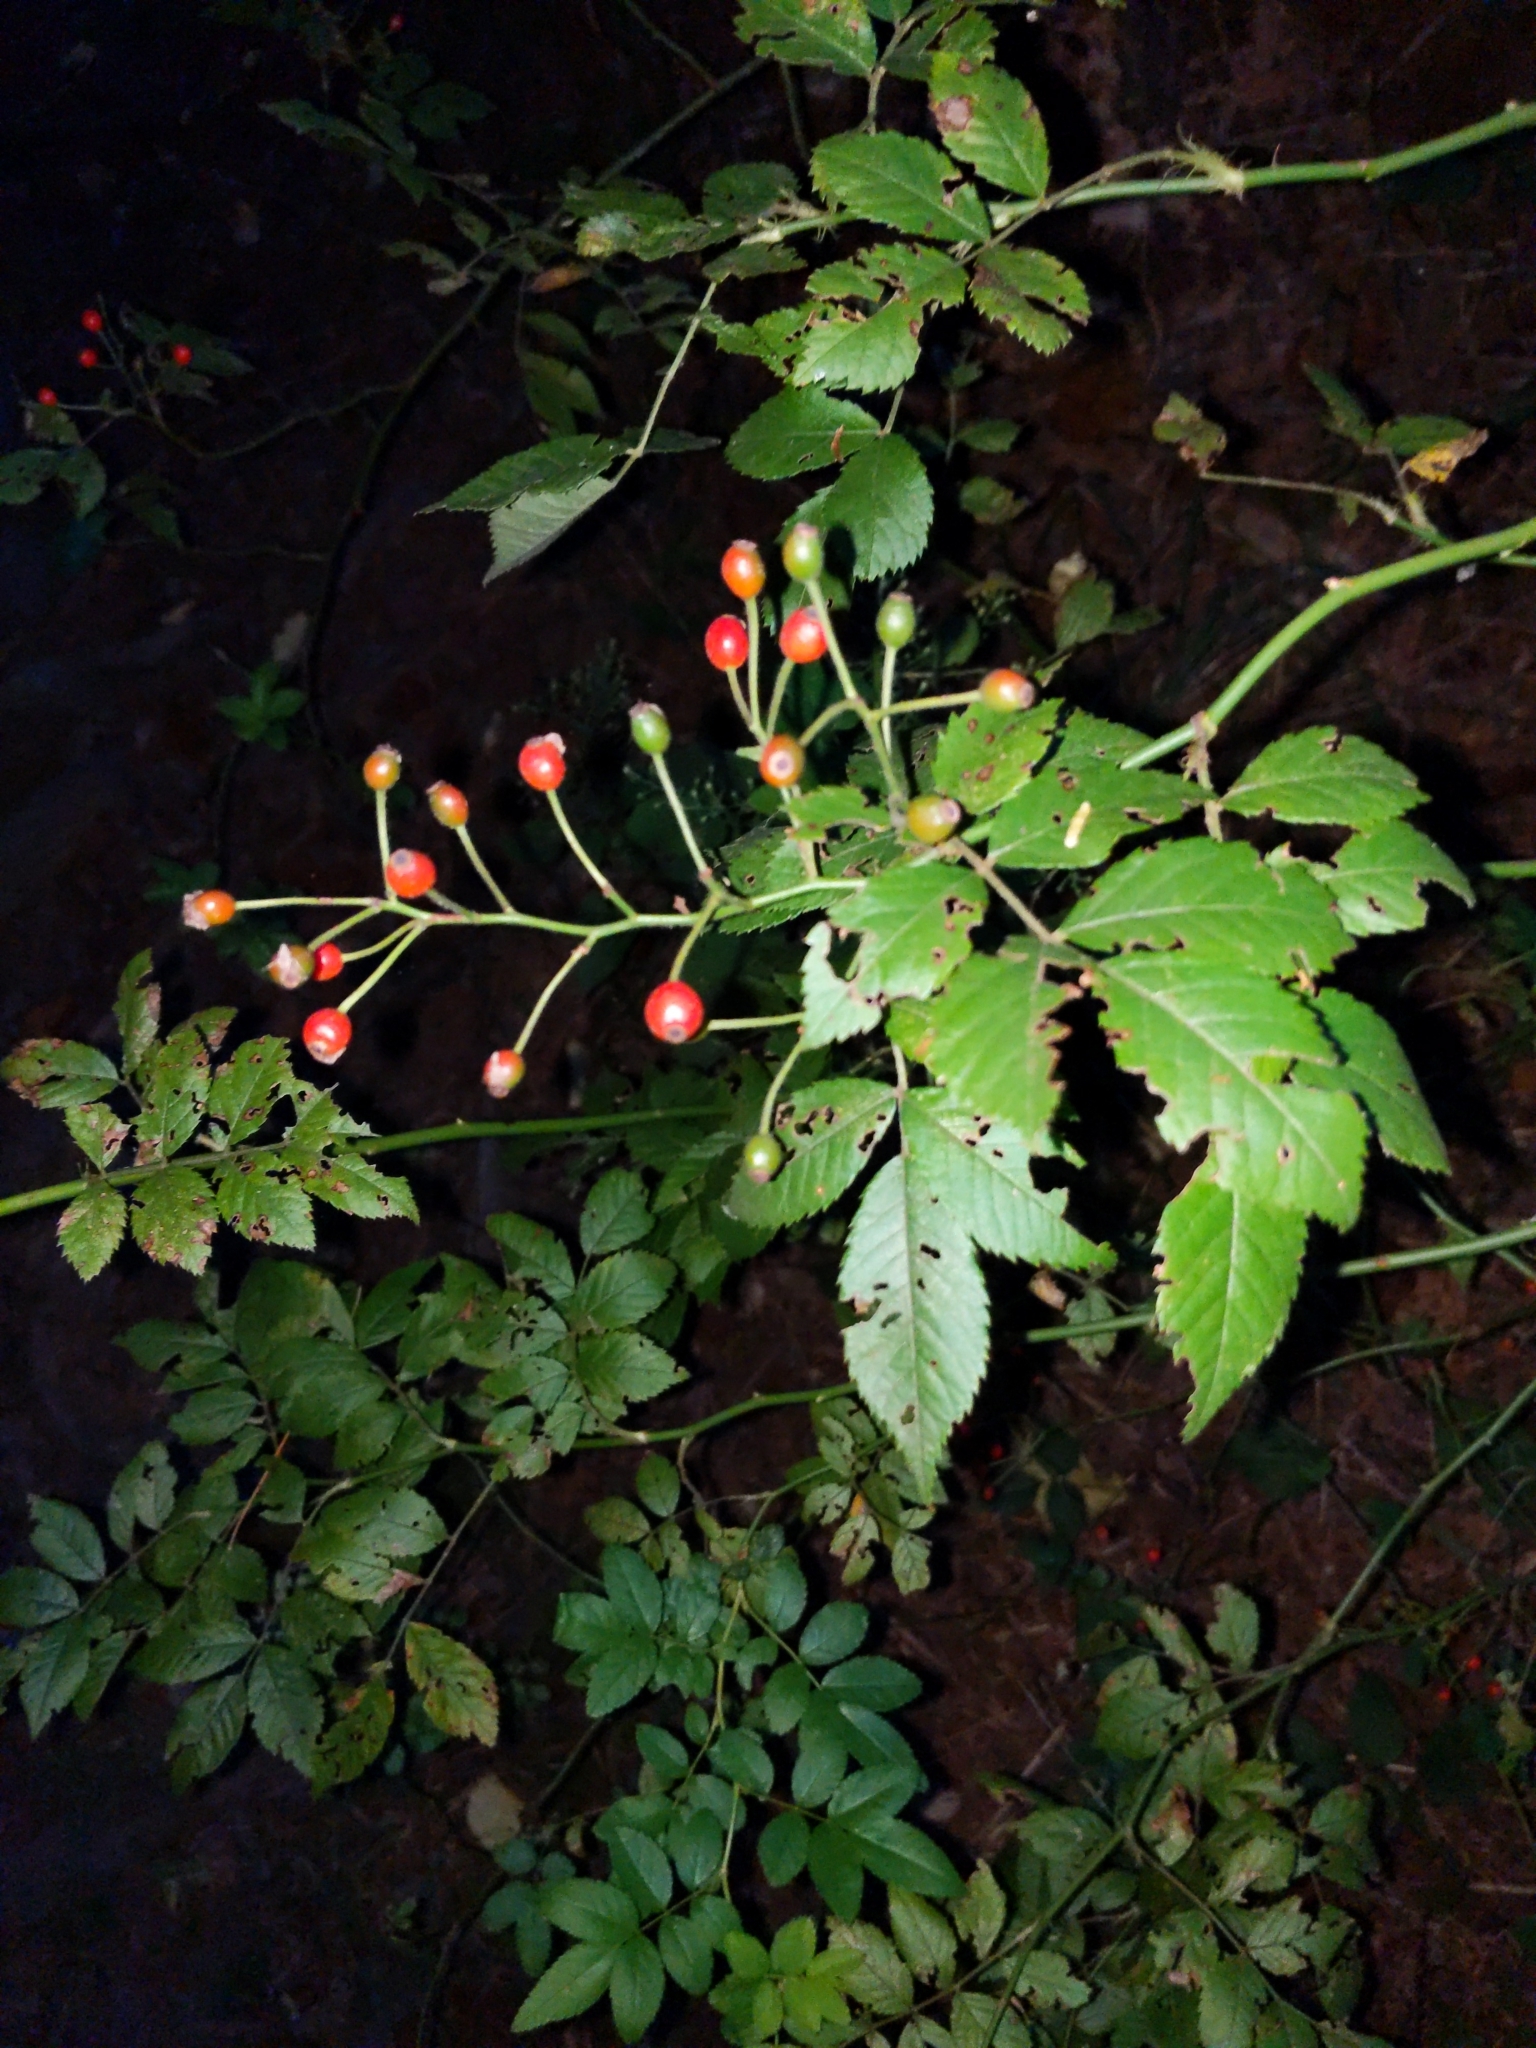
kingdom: Plantae
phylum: Tracheophyta
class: Magnoliopsida
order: Rosales
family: Rosaceae
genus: Rosa
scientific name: Rosa multiflora
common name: Multiflora rose
